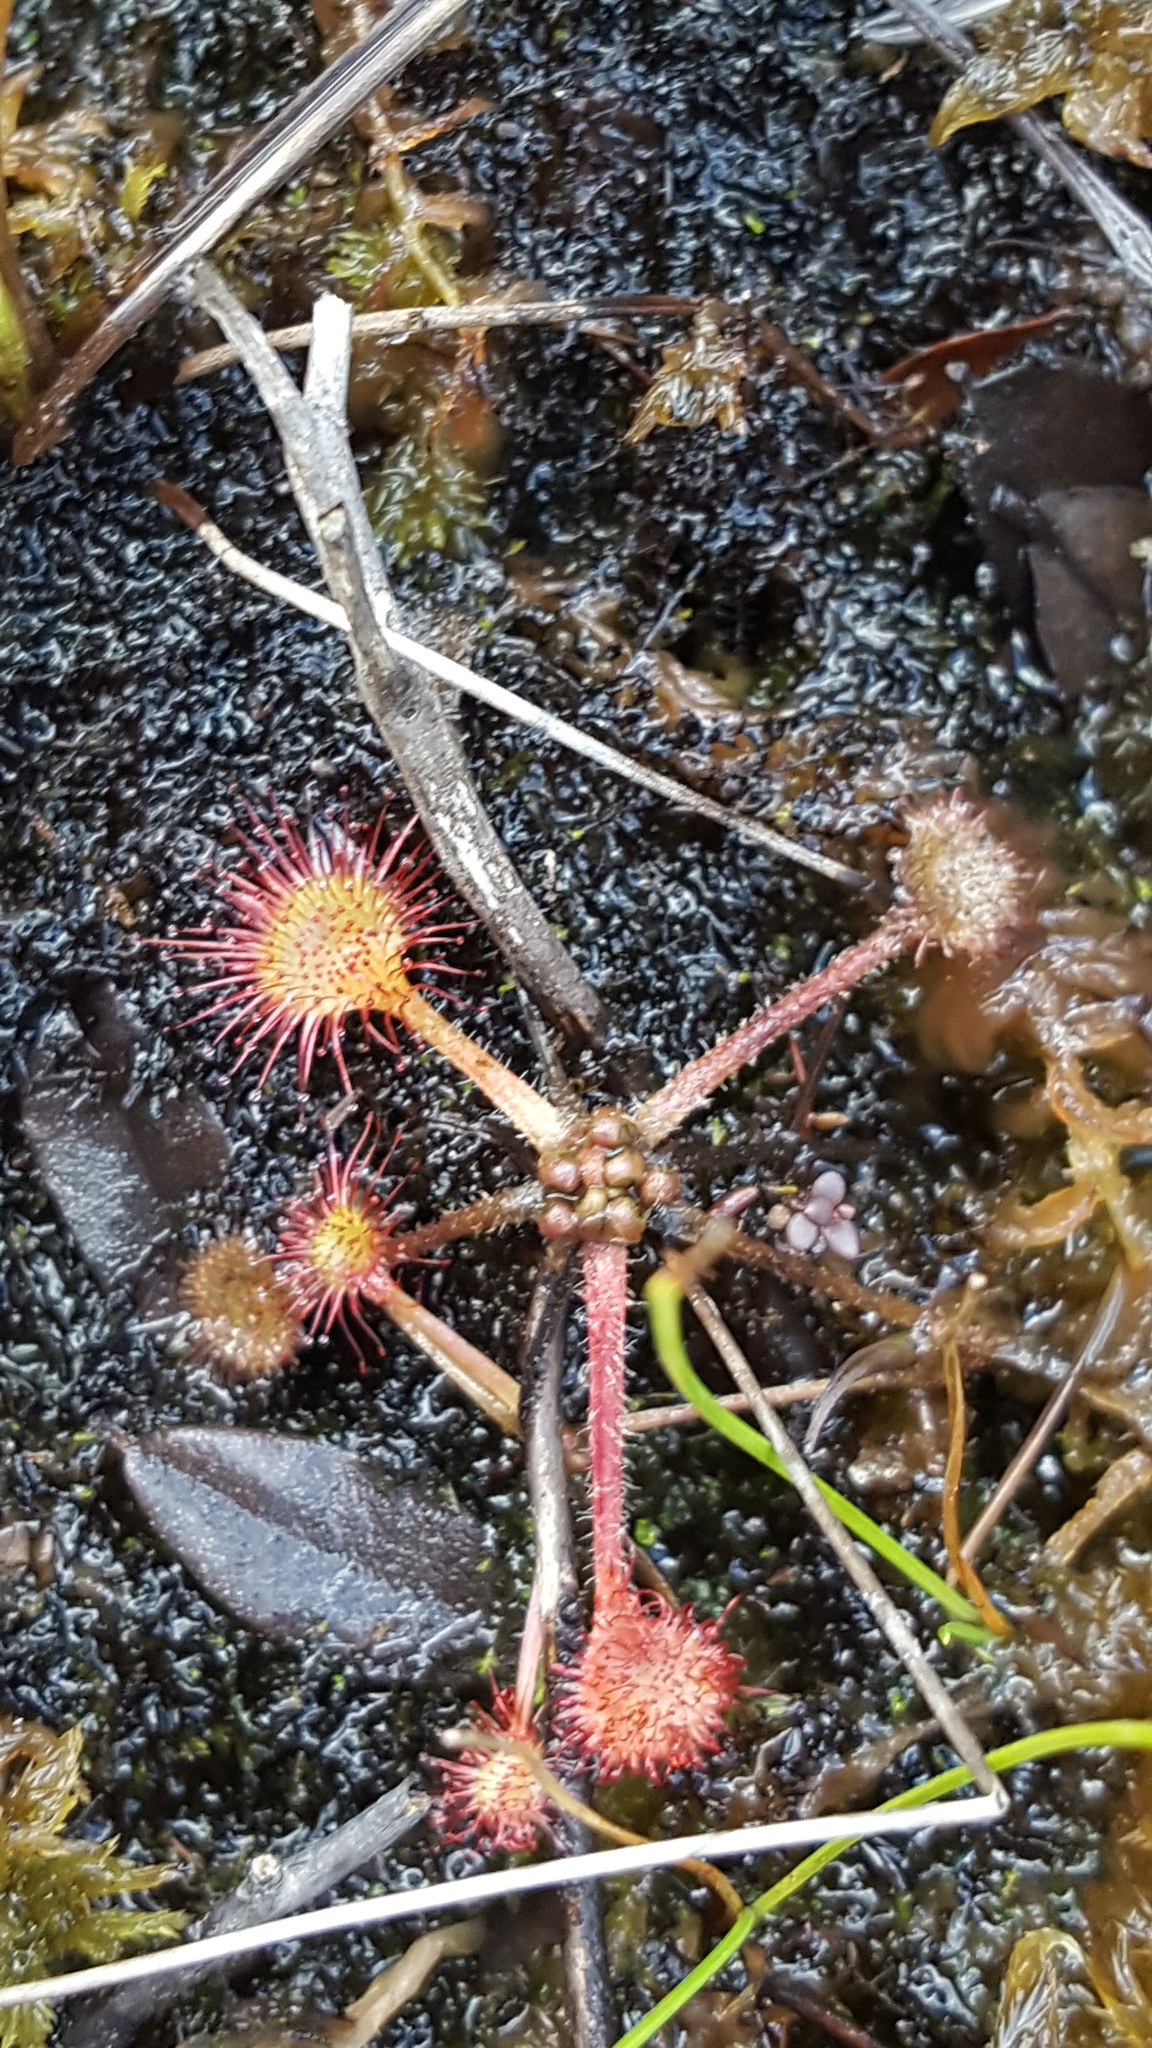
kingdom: Plantae
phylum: Tracheophyta
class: Magnoliopsida
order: Caryophyllales
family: Droseraceae
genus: Drosera
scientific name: Drosera rotundifolia
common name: Round-leaved sundew
